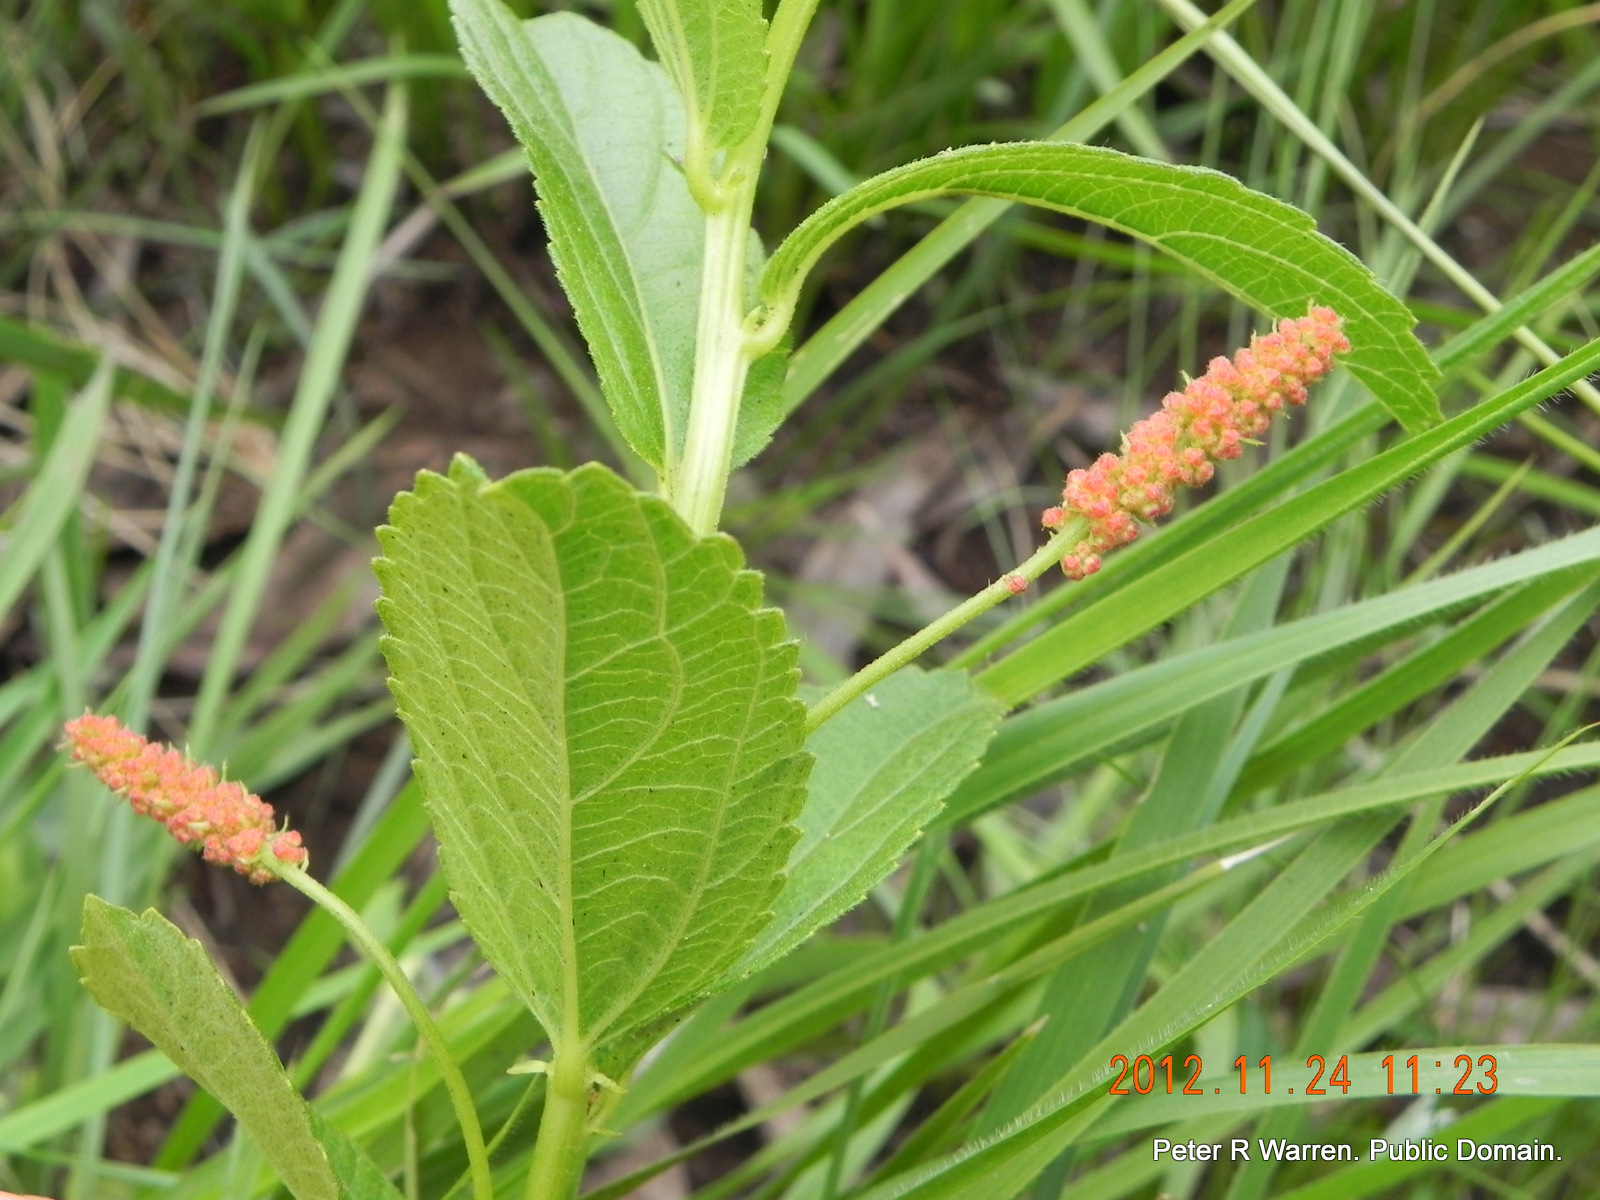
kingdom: Plantae
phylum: Tracheophyta
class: Magnoliopsida
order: Malpighiales
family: Euphorbiaceae
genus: Acalypha
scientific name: Acalypha peduncularis
